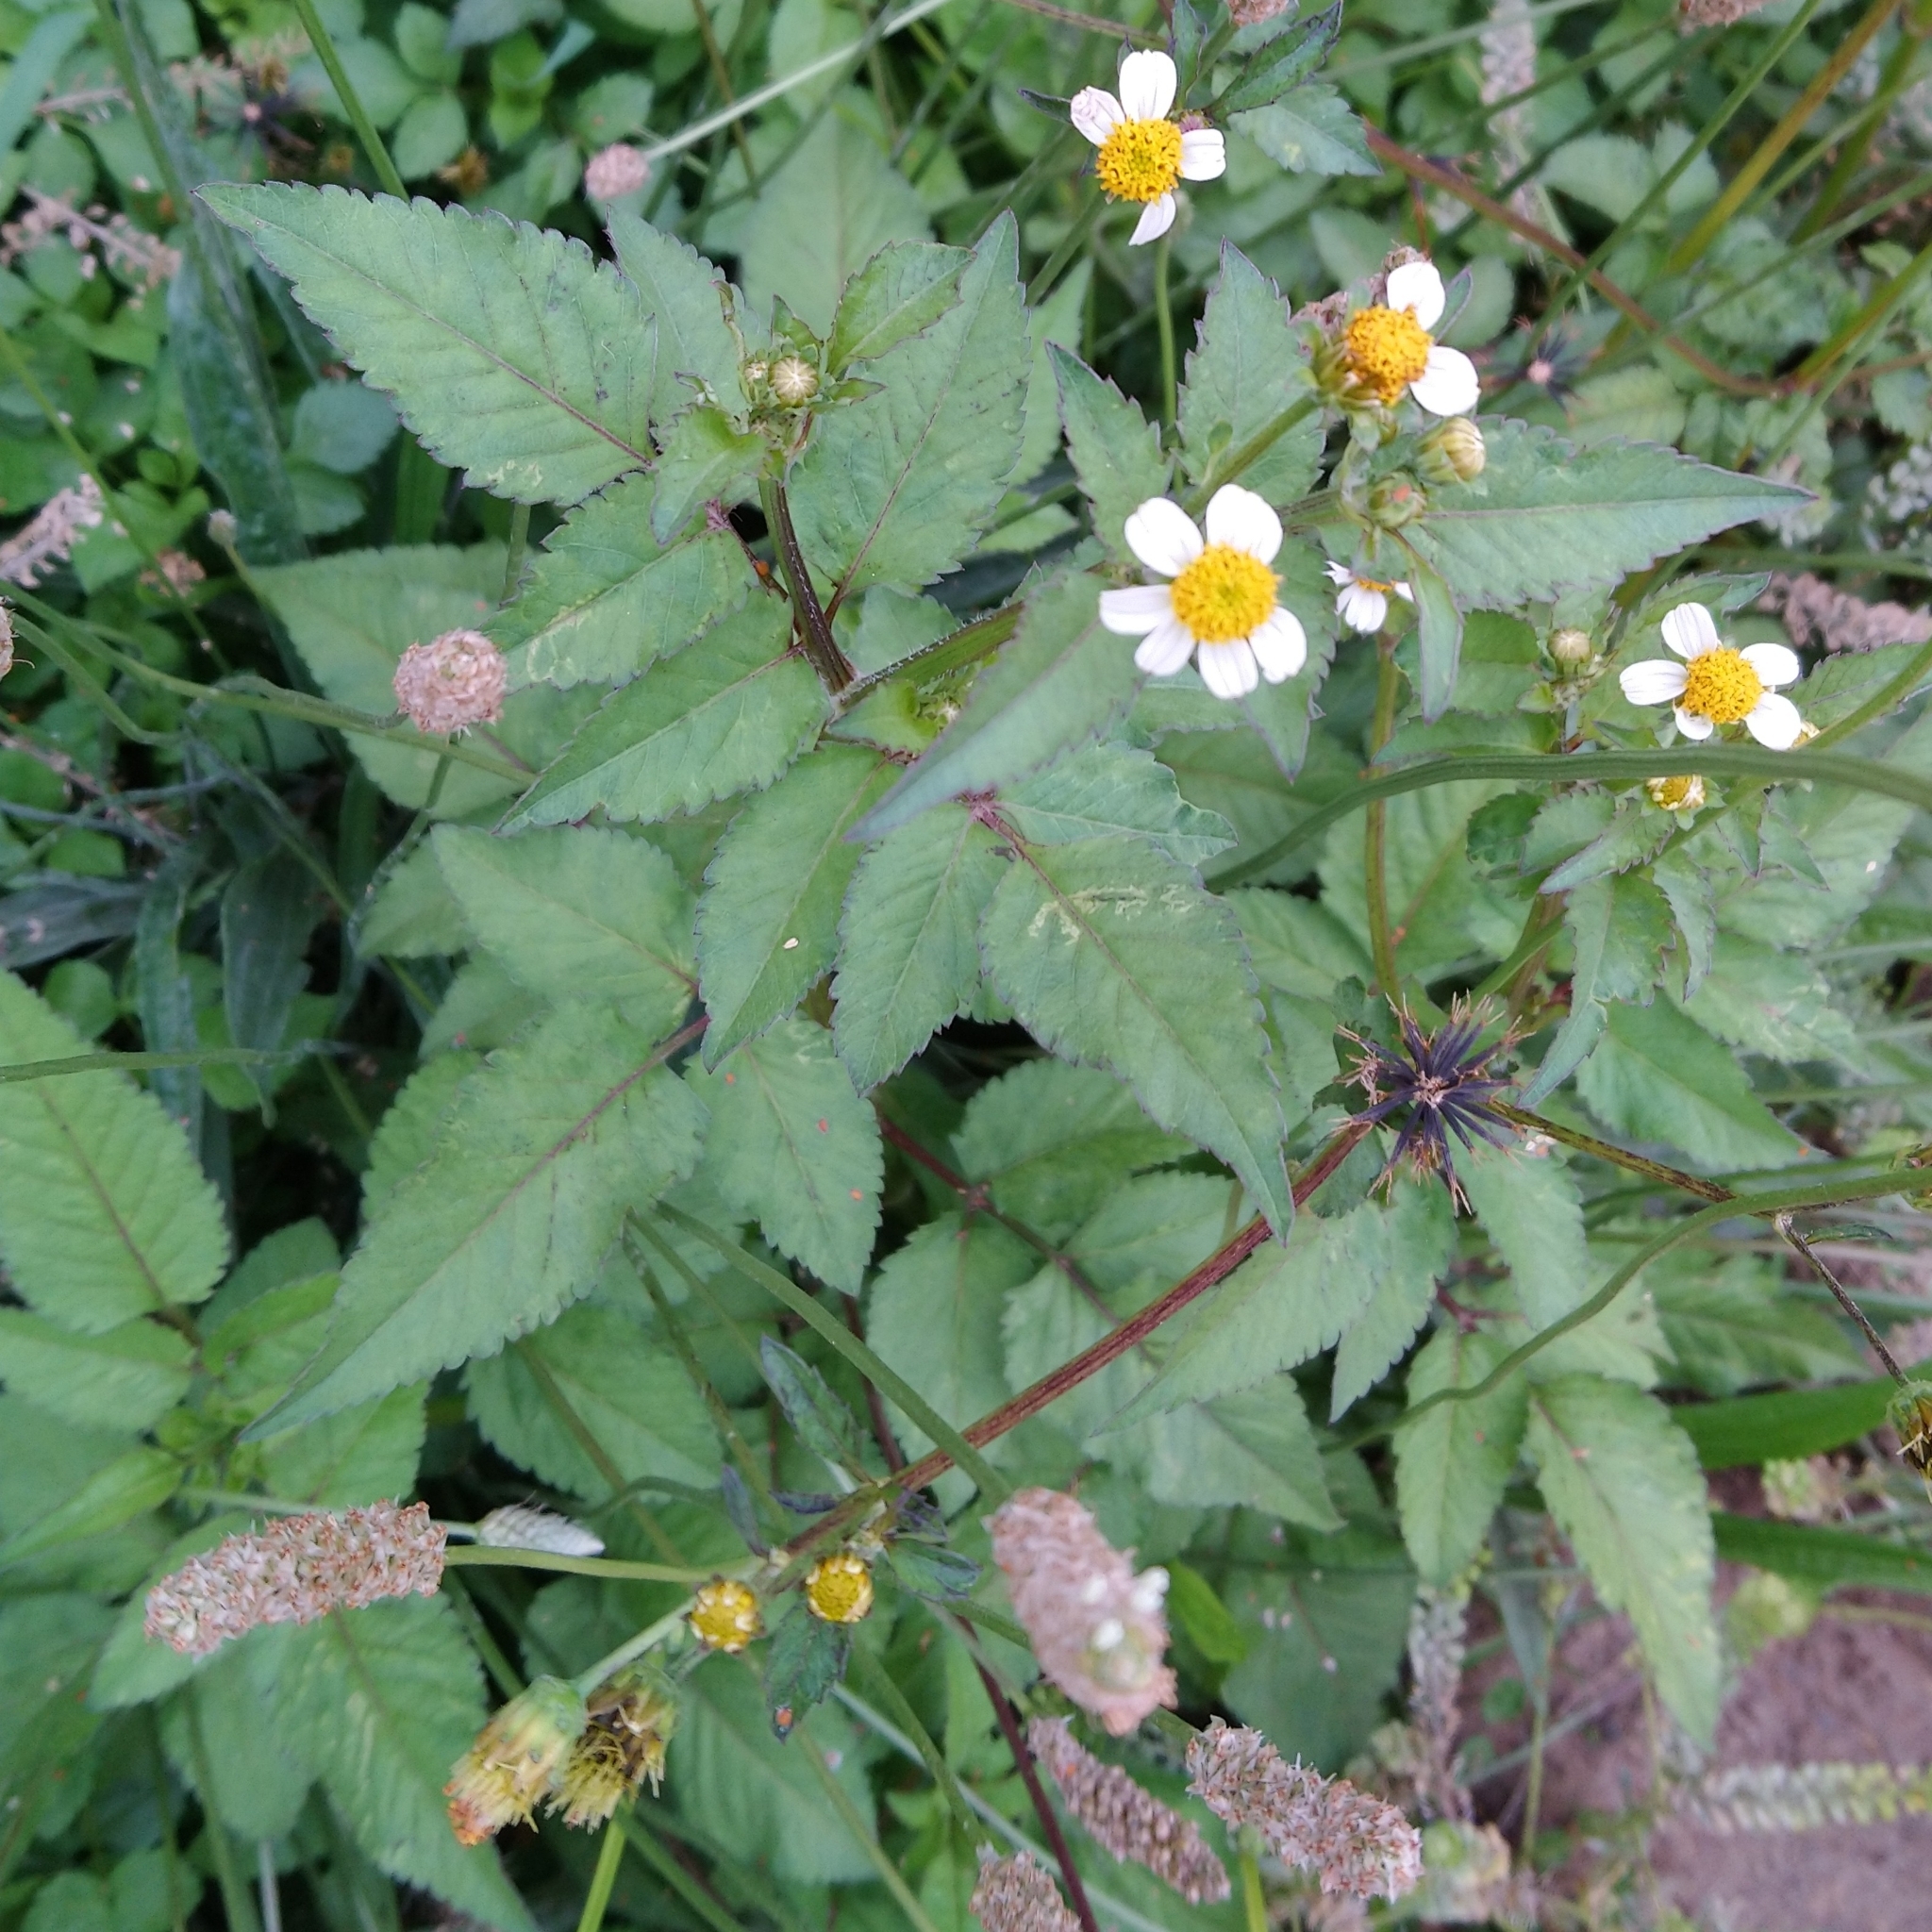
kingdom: Plantae
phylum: Tracheophyta
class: Magnoliopsida
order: Asterales
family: Asteraceae
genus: Bidens
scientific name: Bidens pilosa
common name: Black-jack
